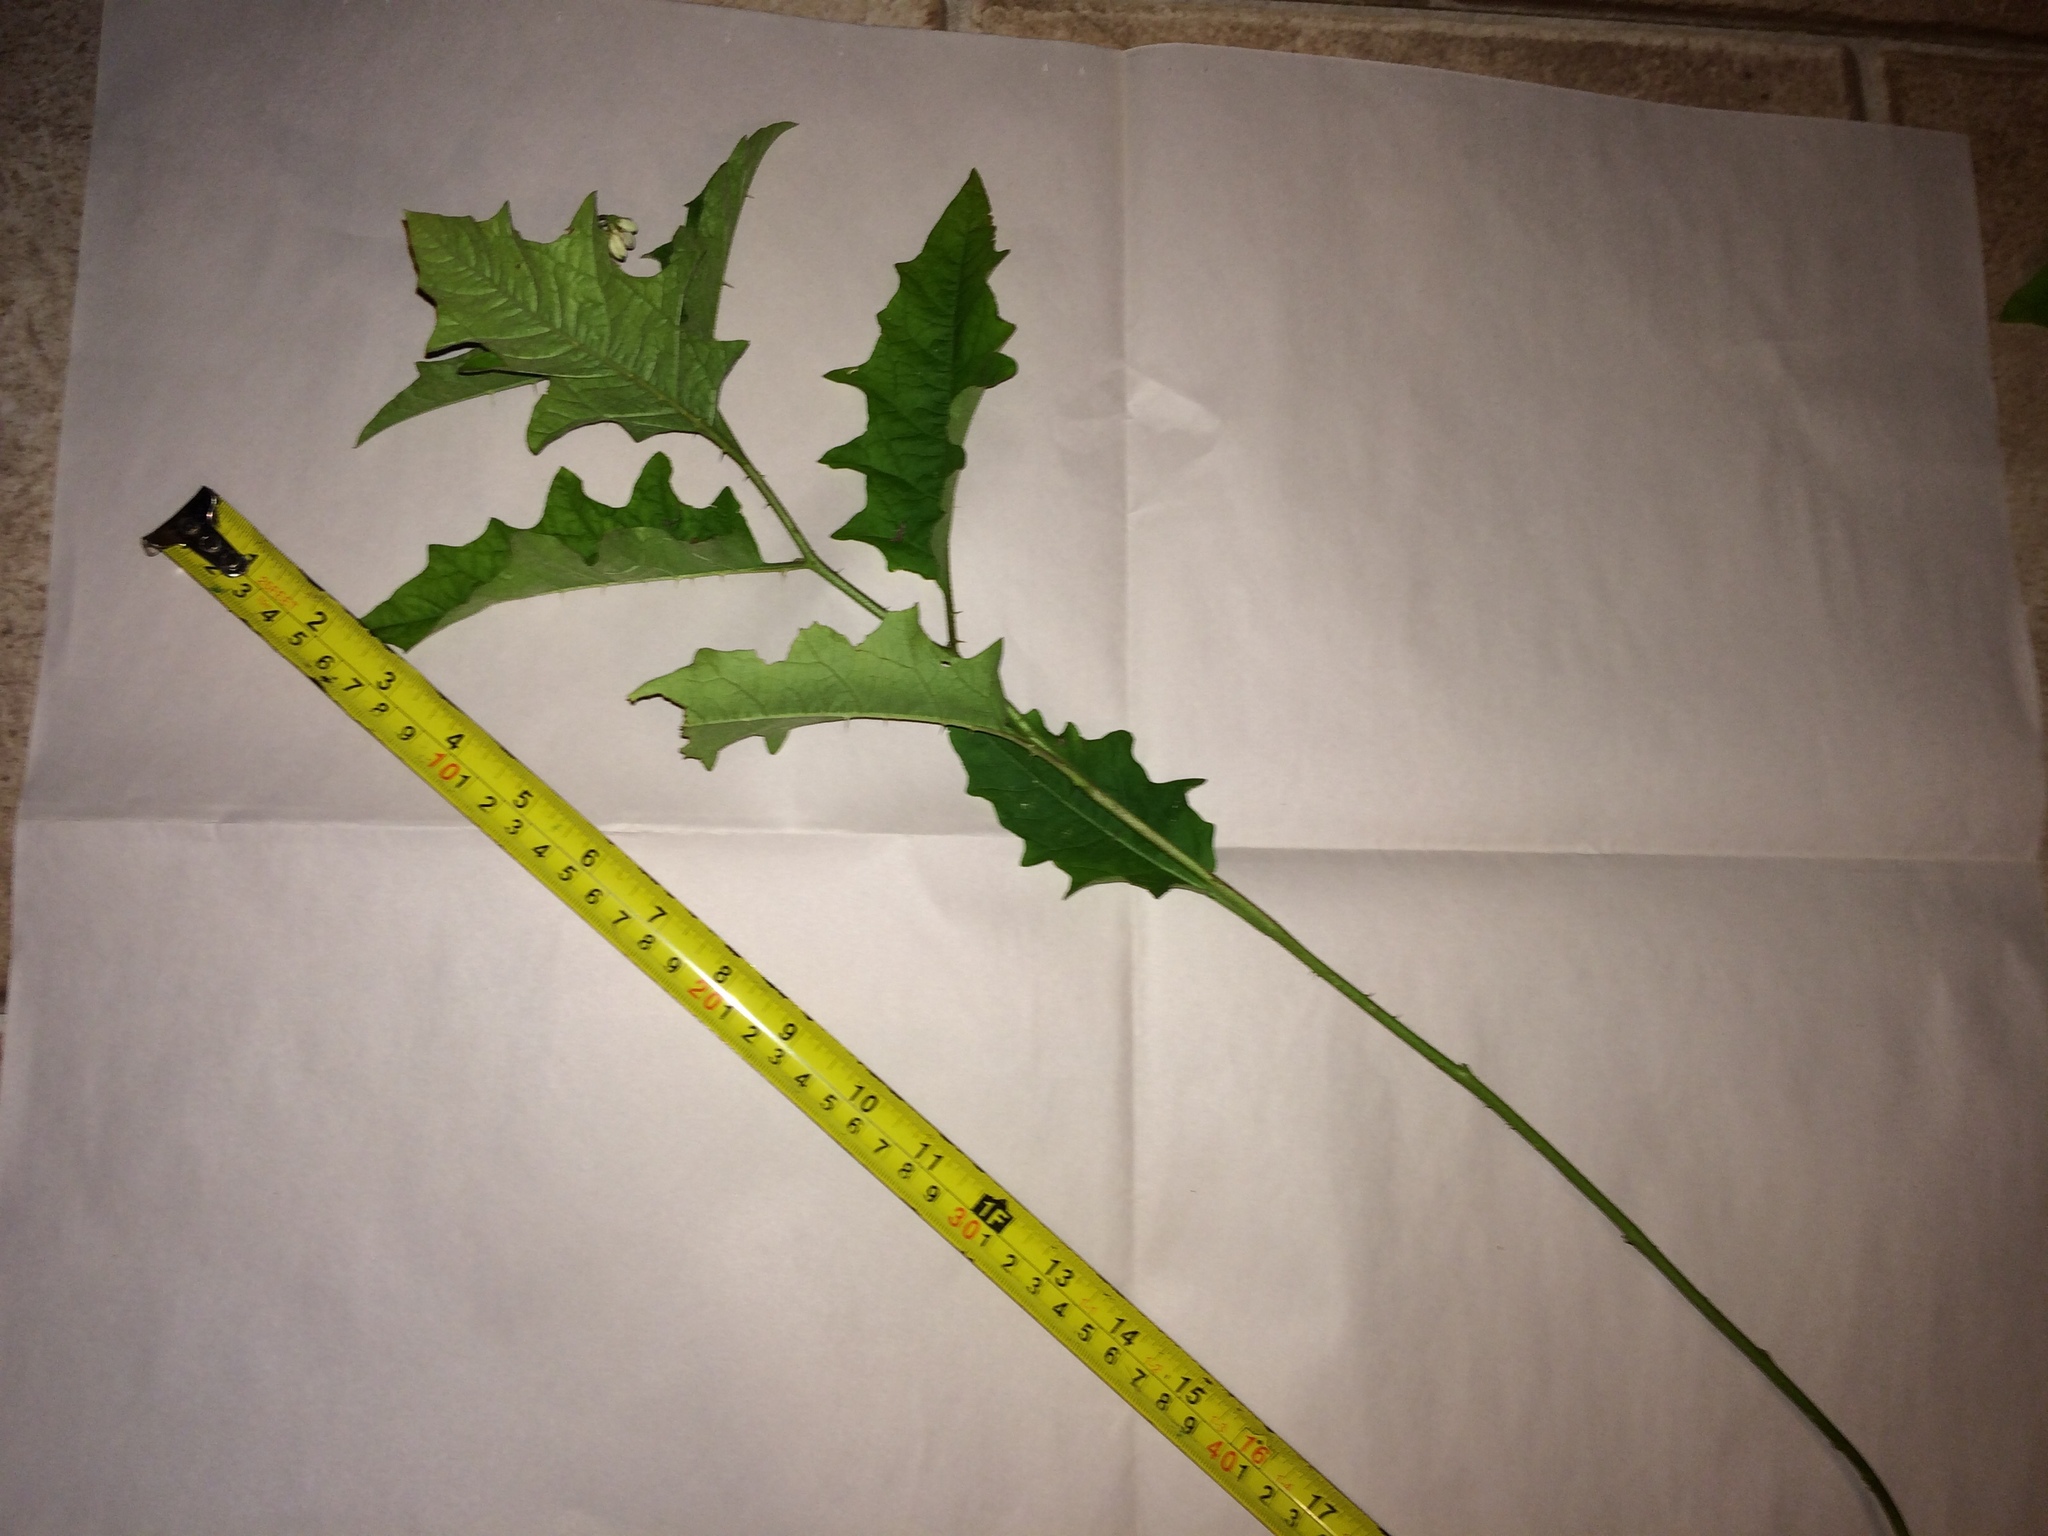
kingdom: Plantae
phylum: Tracheophyta
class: Magnoliopsida
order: Solanales
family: Solanaceae
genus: Solanum
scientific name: Solanum carolinense
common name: Horse-nettle
